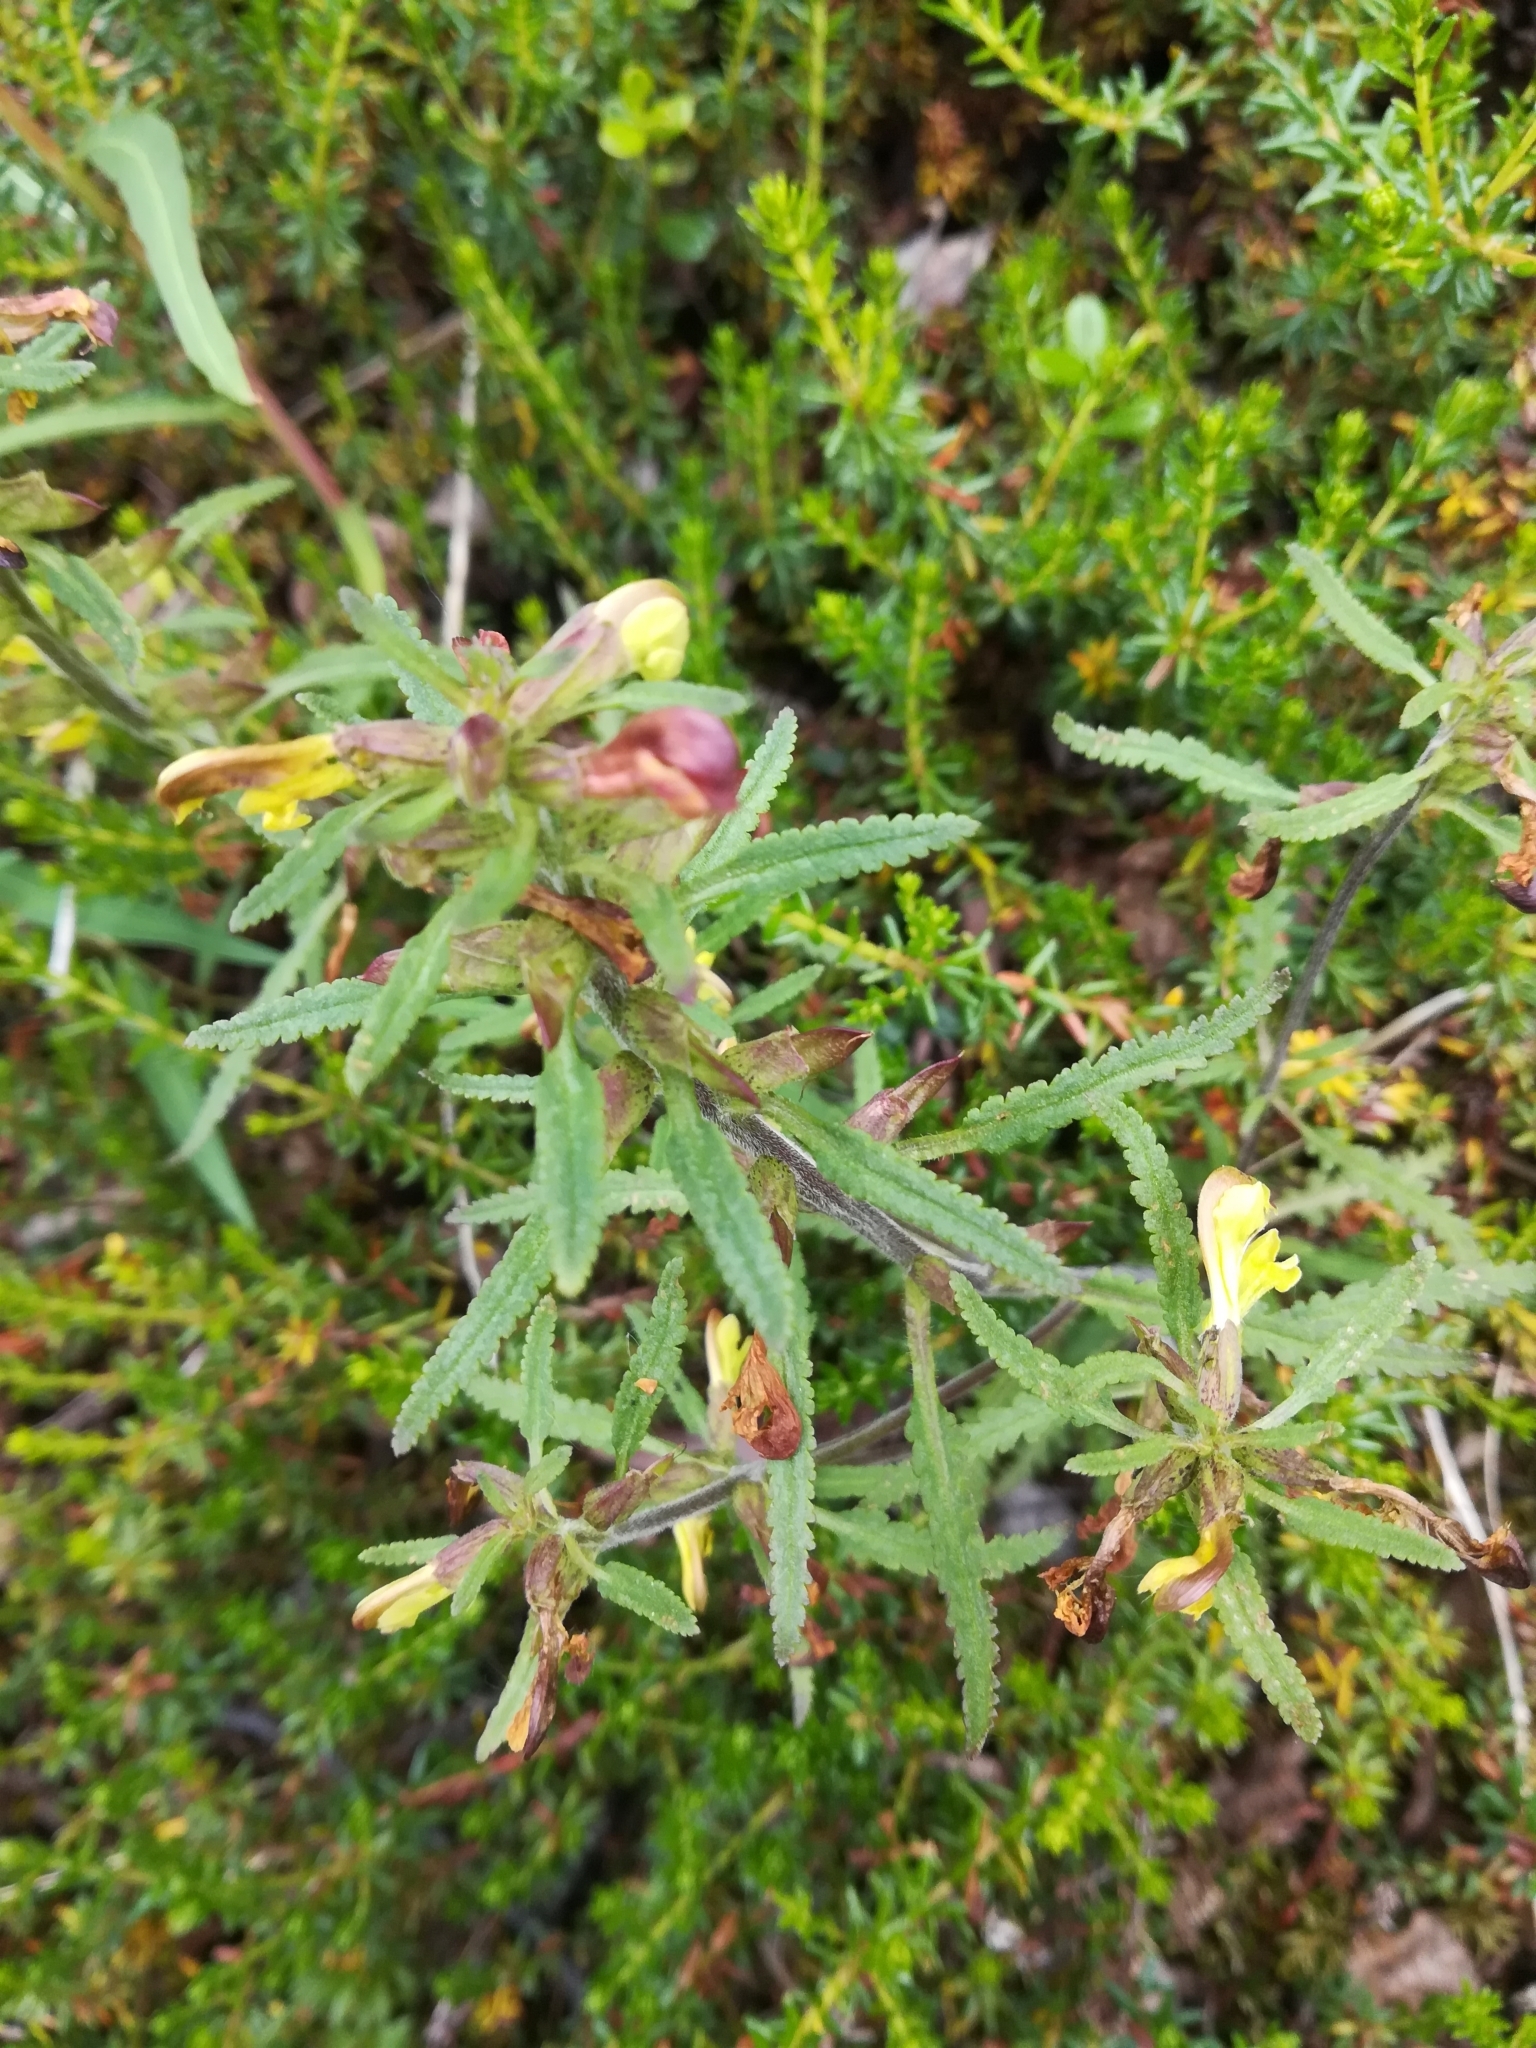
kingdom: Plantae
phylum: Tracheophyta
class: Magnoliopsida
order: Lamiales
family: Orobanchaceae
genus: Pedicularis
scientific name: Pedicularis labradorica
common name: Labrador lousewort
